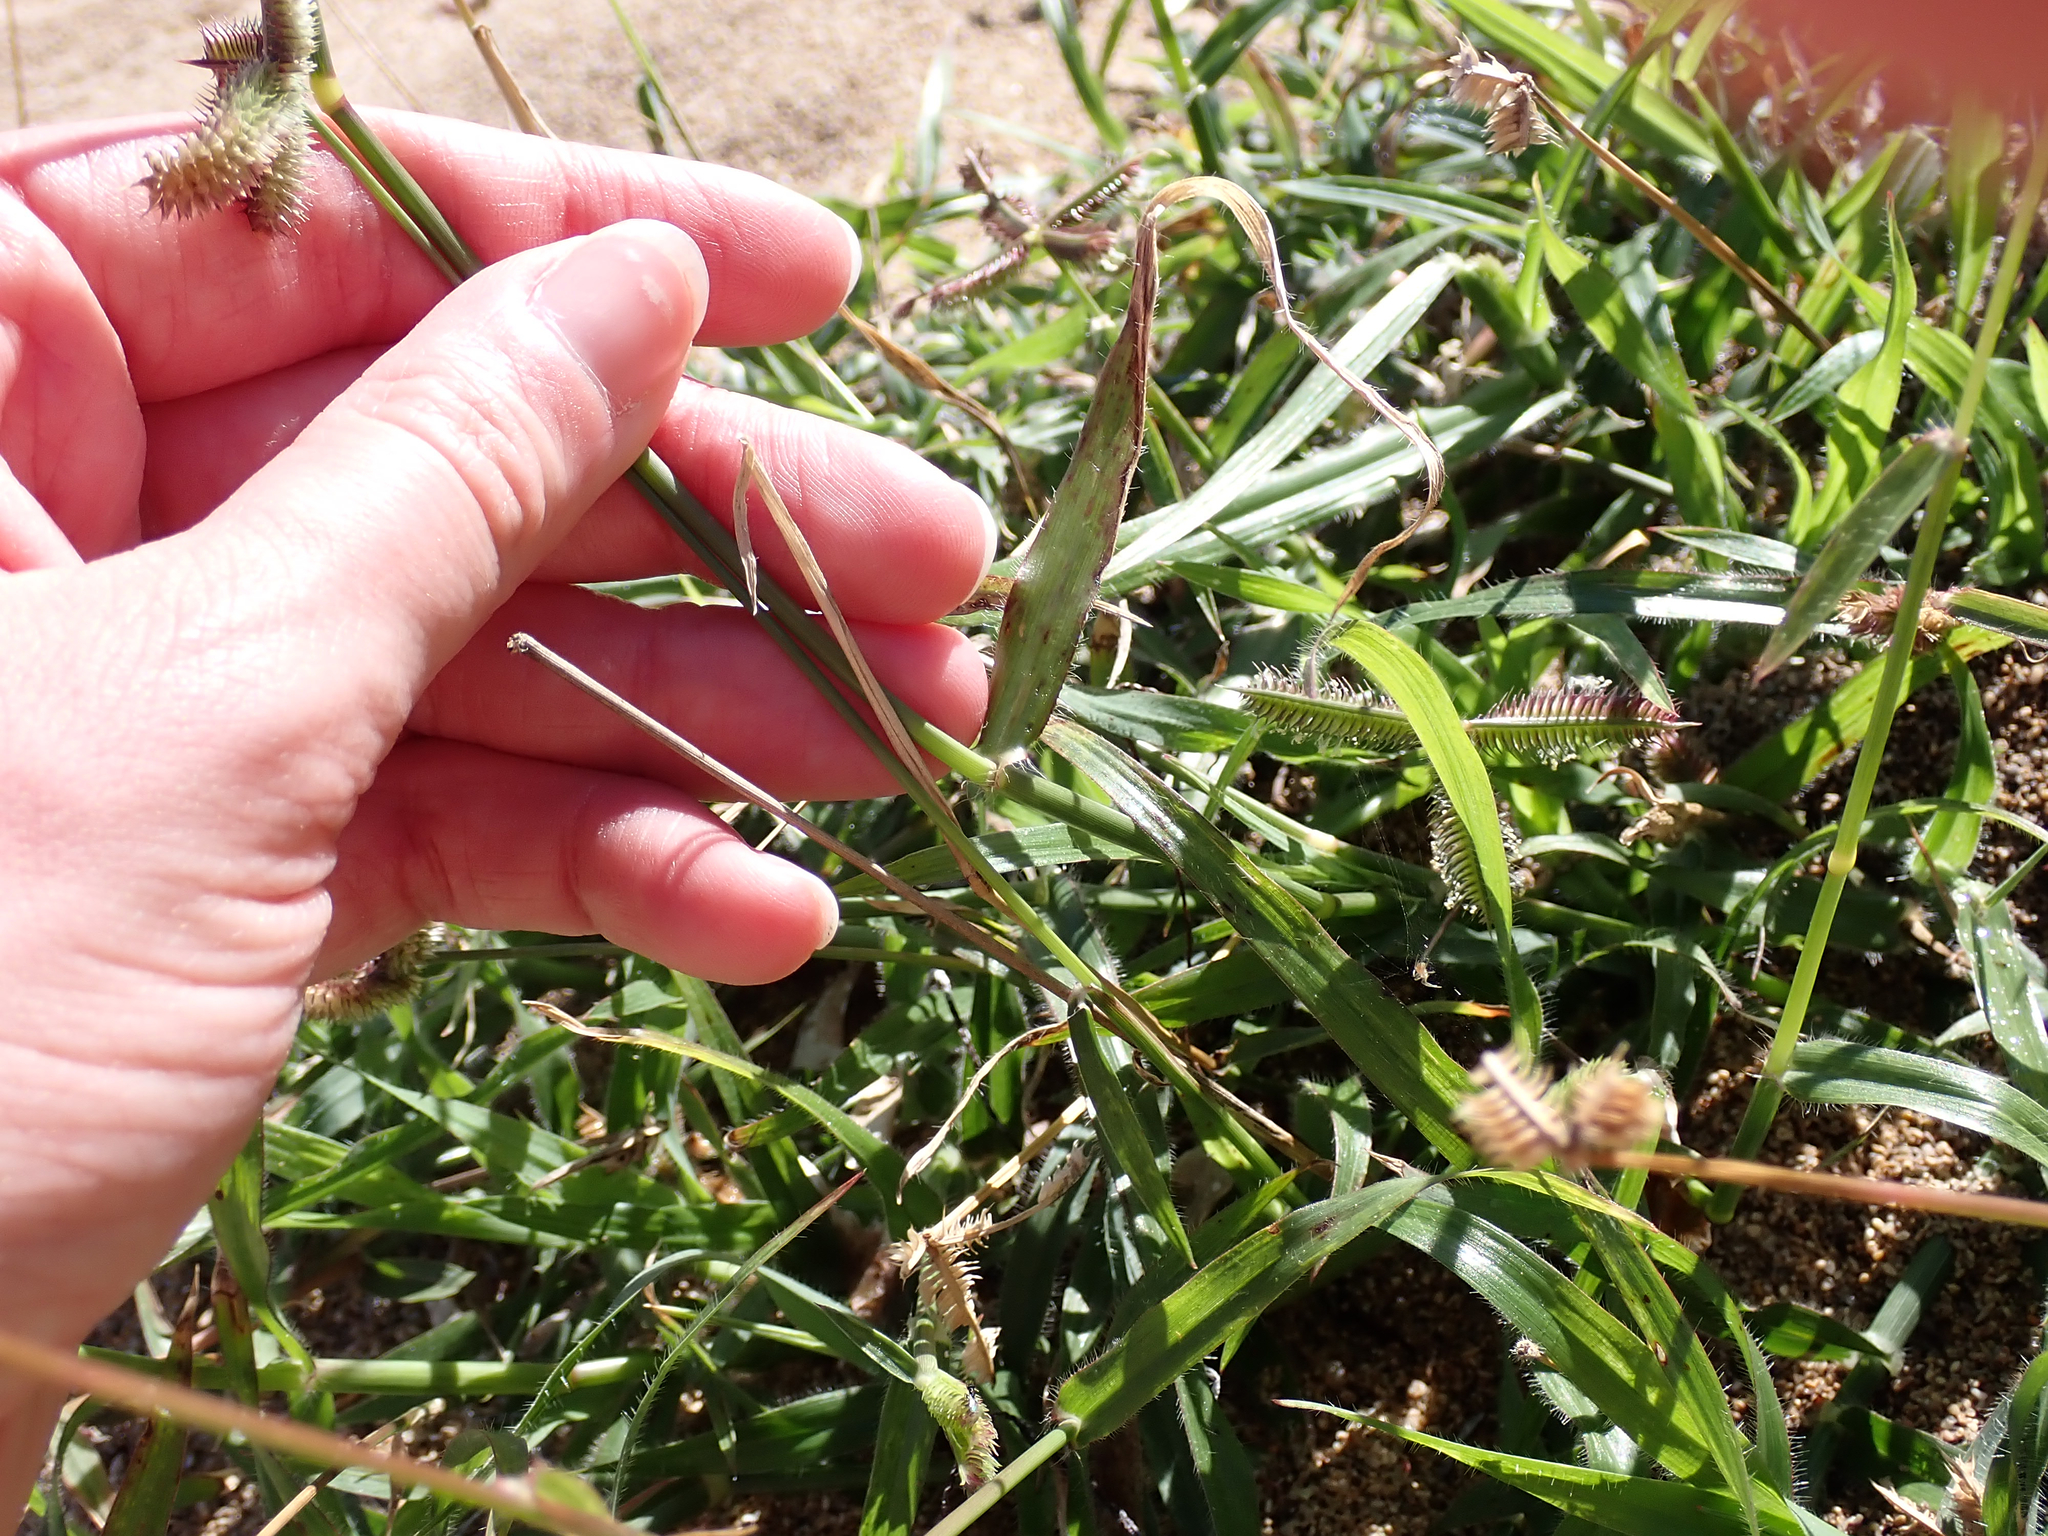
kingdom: Plantae
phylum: Tracheophyta
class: Liliopsida
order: Poales
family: Poaceae
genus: Dactyloctenium
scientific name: Dactyloctenium aegyptium
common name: Egyptian grass
